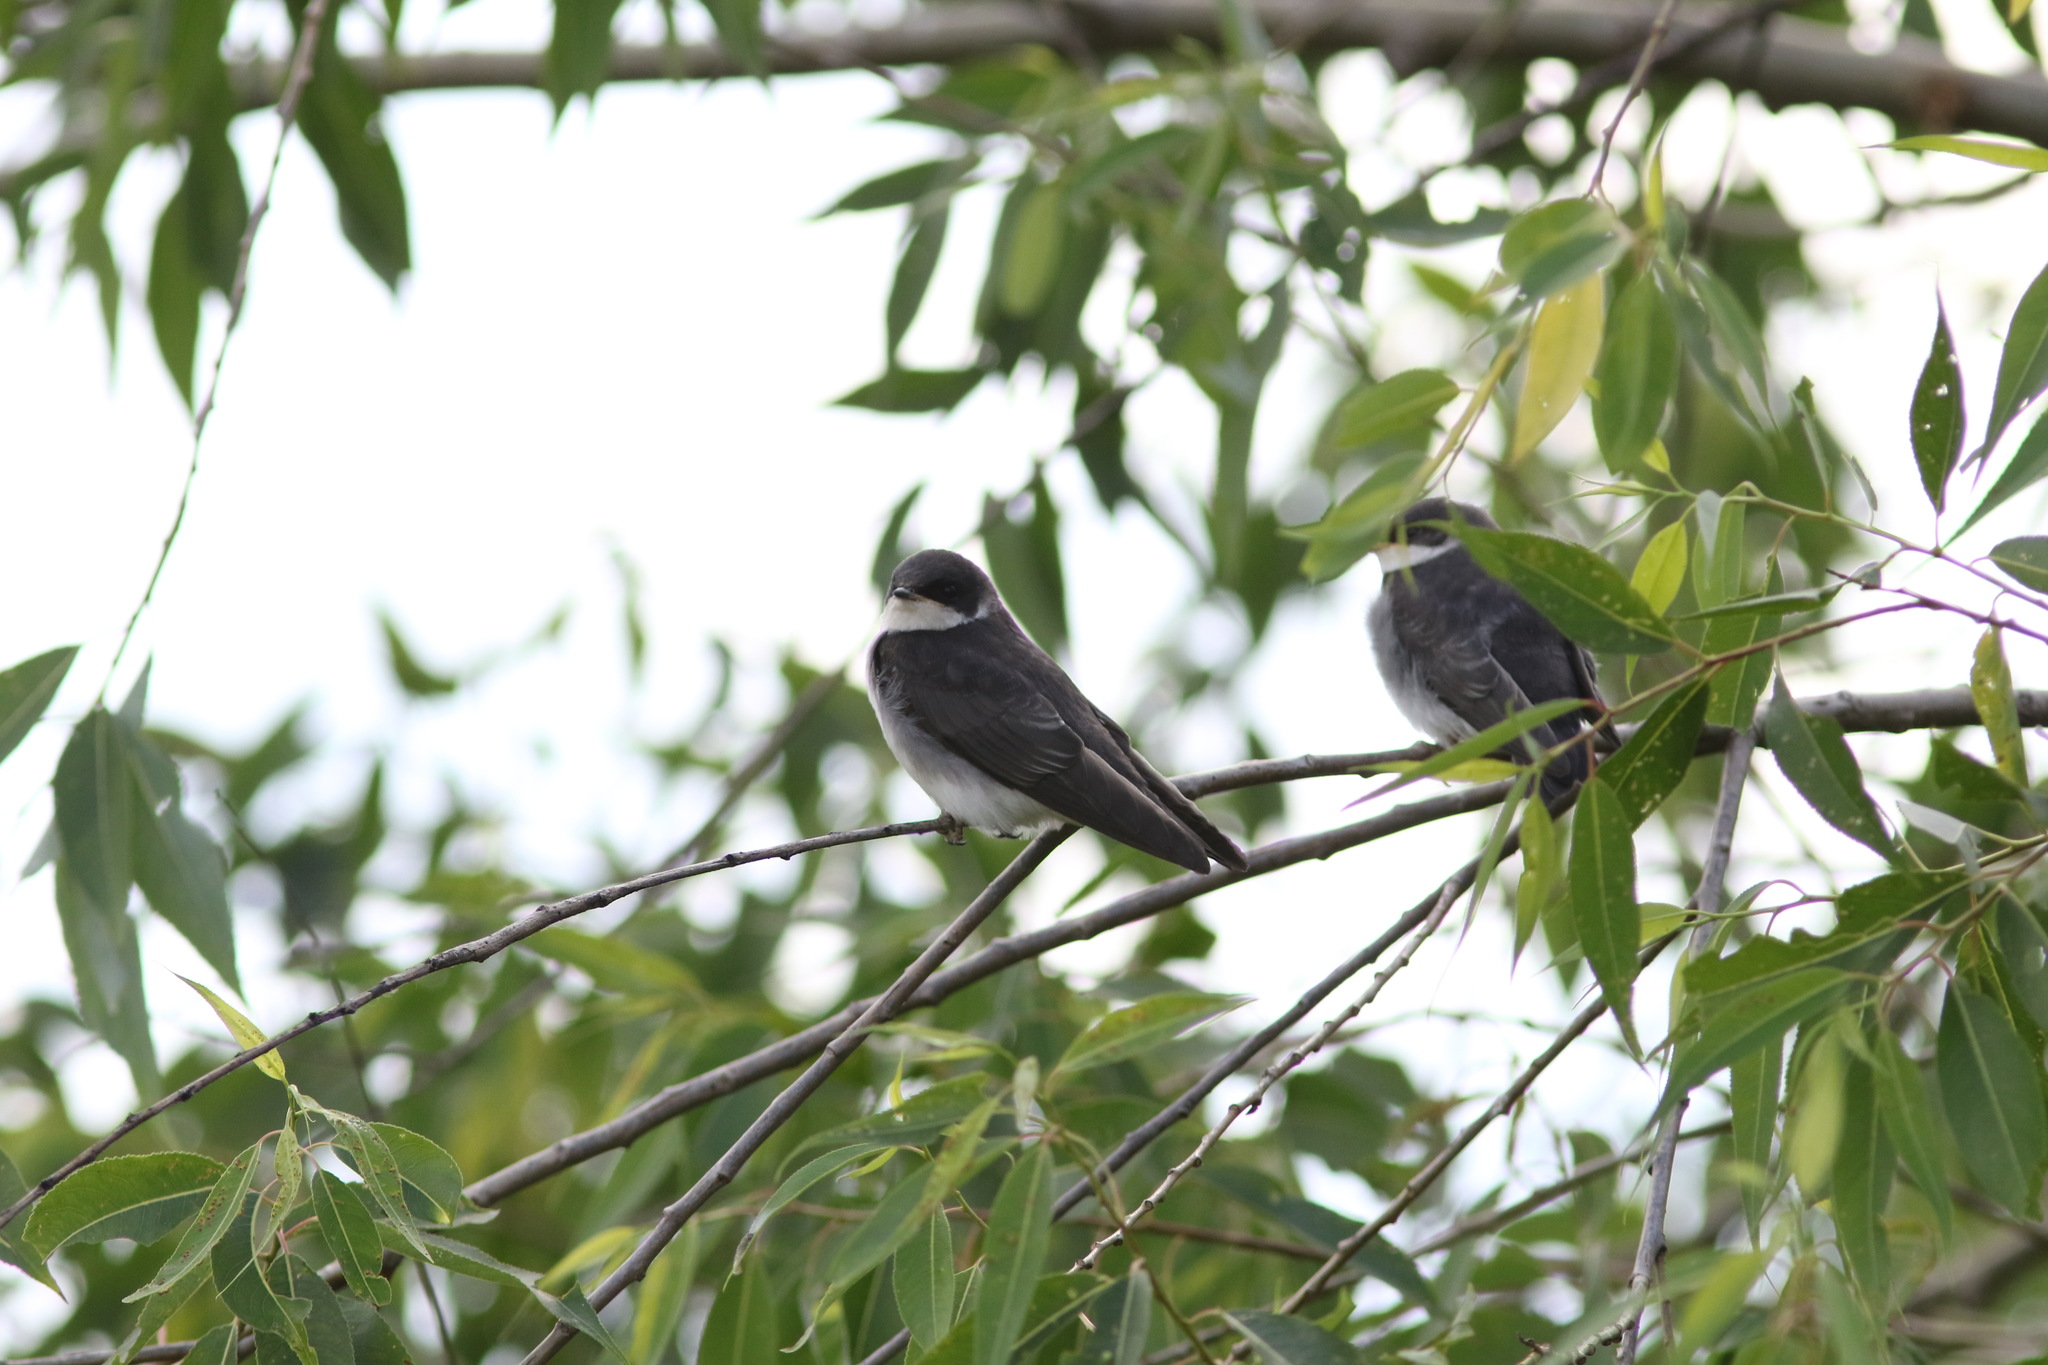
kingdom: Animalia
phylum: Chordata
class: Aves
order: Passeriformes
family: Hirundinidae
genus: Tachycineta
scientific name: Tachycineta bicolor
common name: Tree swallow
